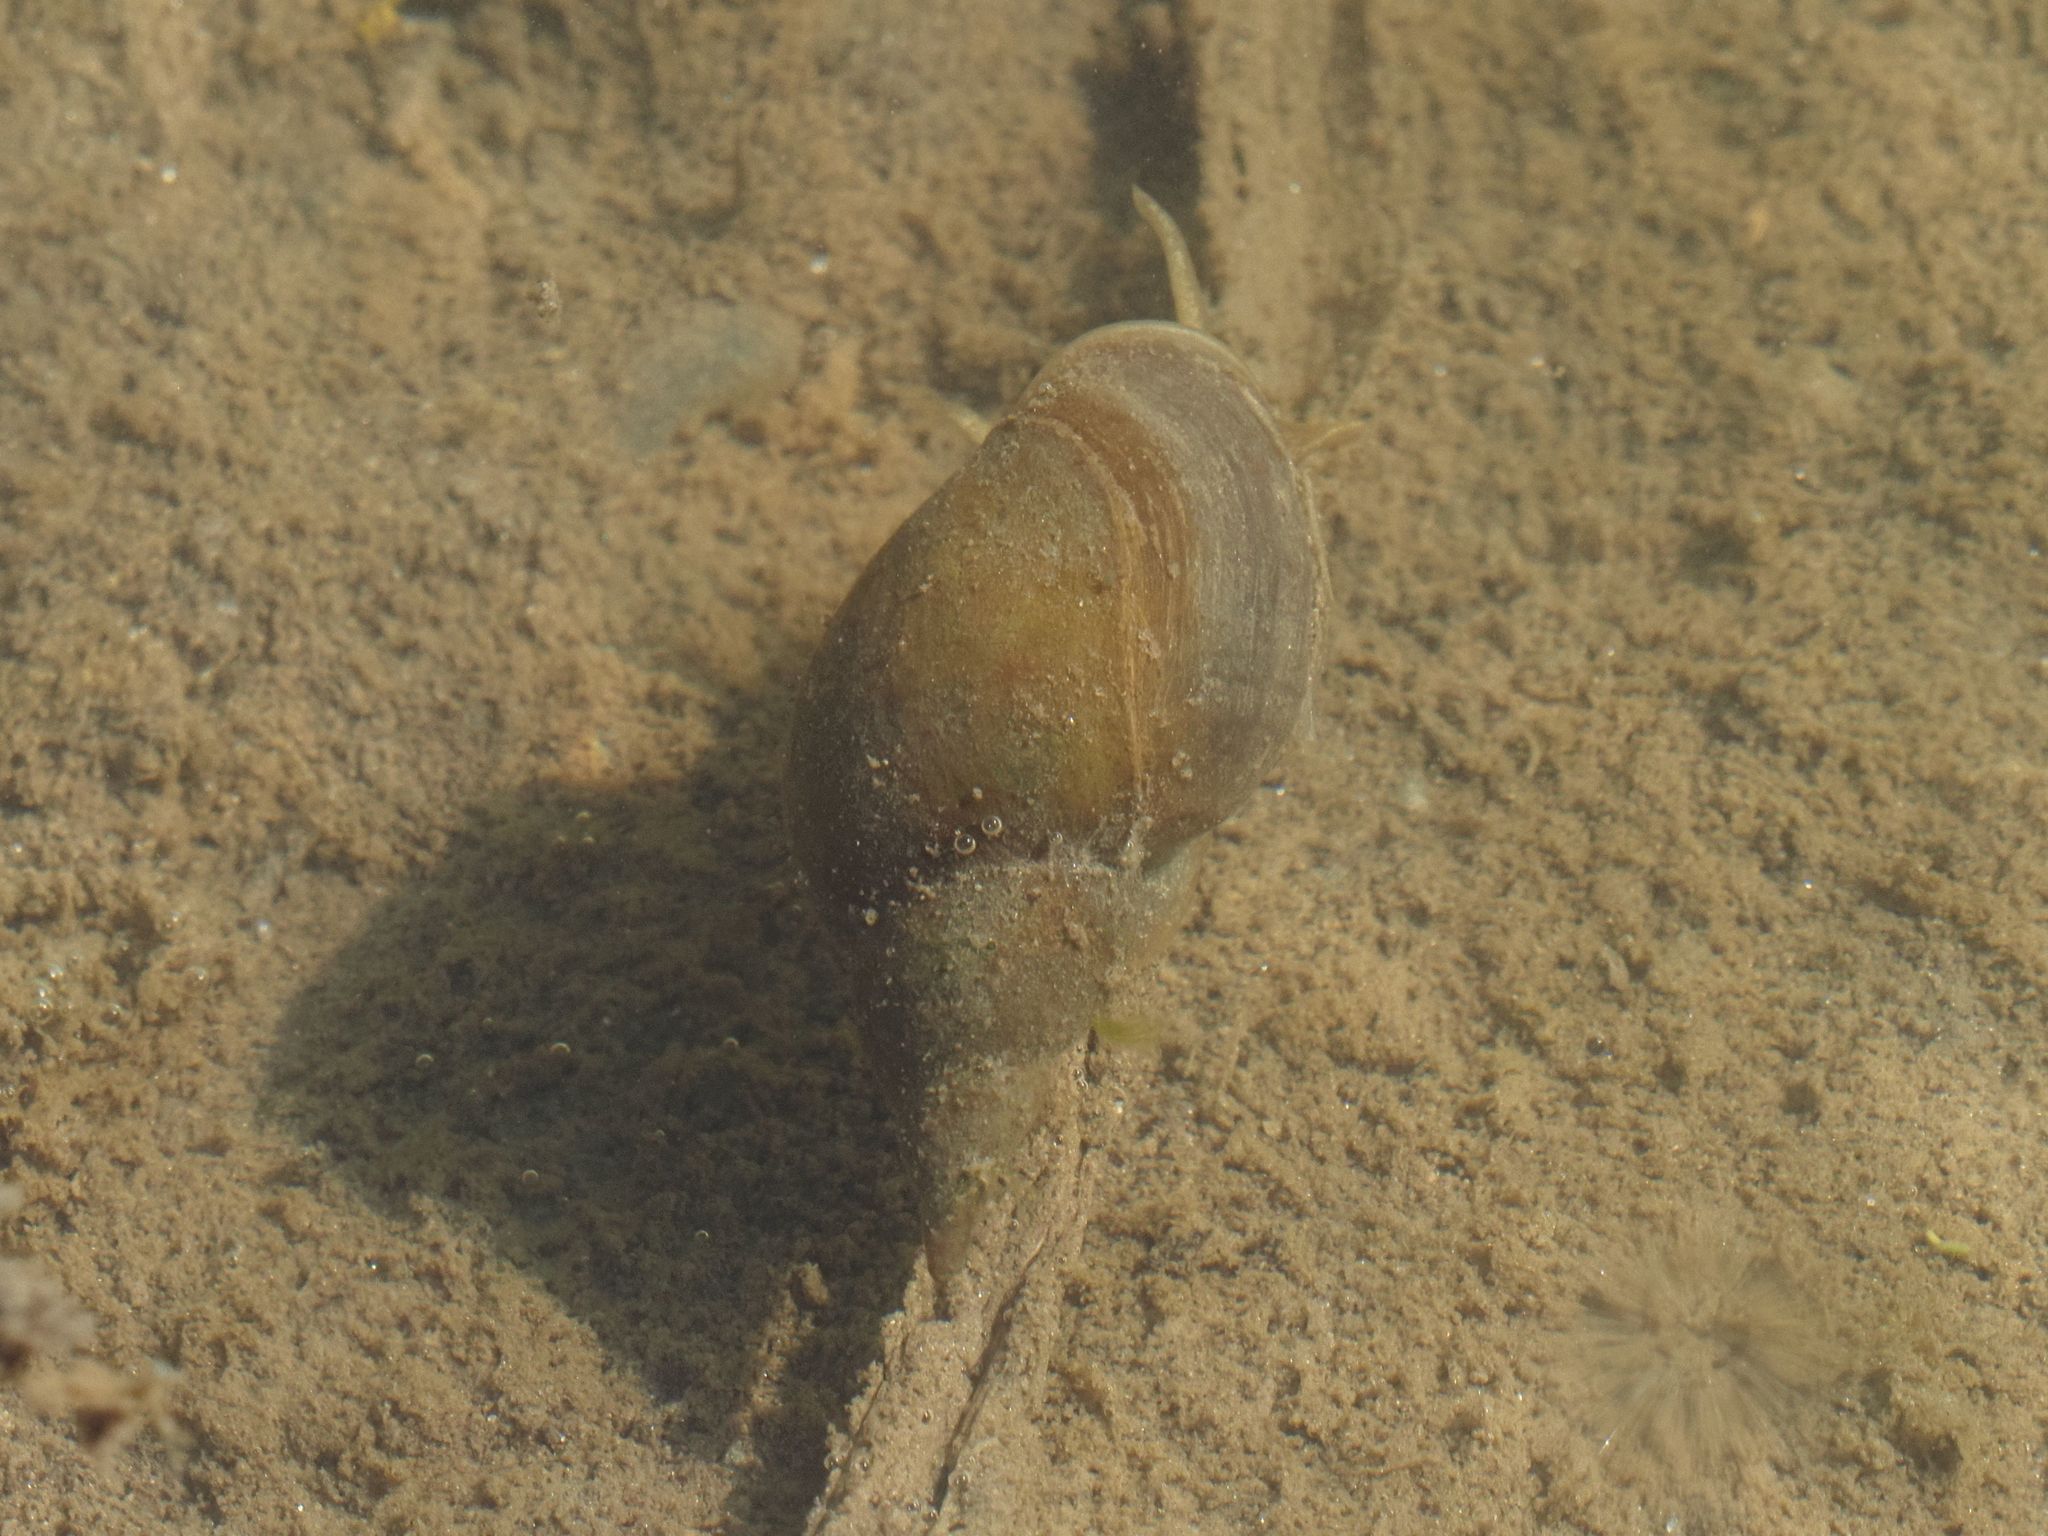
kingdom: Animalia
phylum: Mollusca
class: Gastropoda
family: Lymnaeidae
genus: Lymnaea
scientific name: Lymnaea stagnalis
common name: Great pond snail
